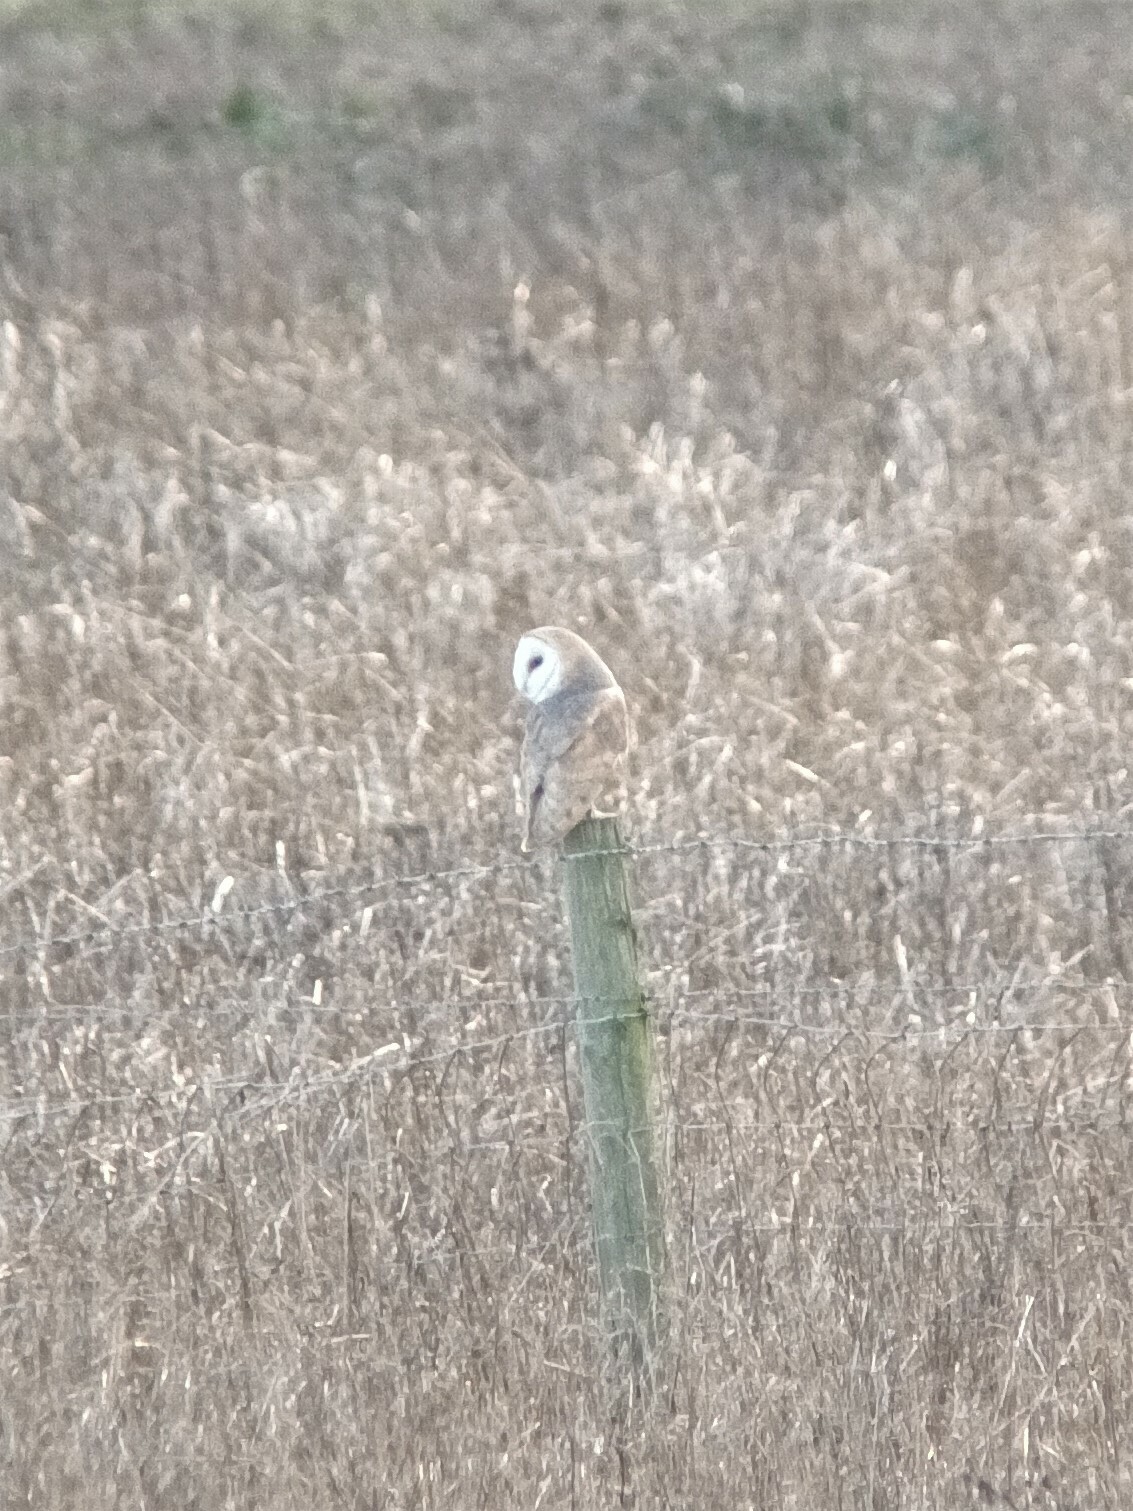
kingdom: Animalia
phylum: Chordata
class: Aves
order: Strigiformes
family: Tytonidae
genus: Tyto
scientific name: Tyto alba
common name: Barn owl
